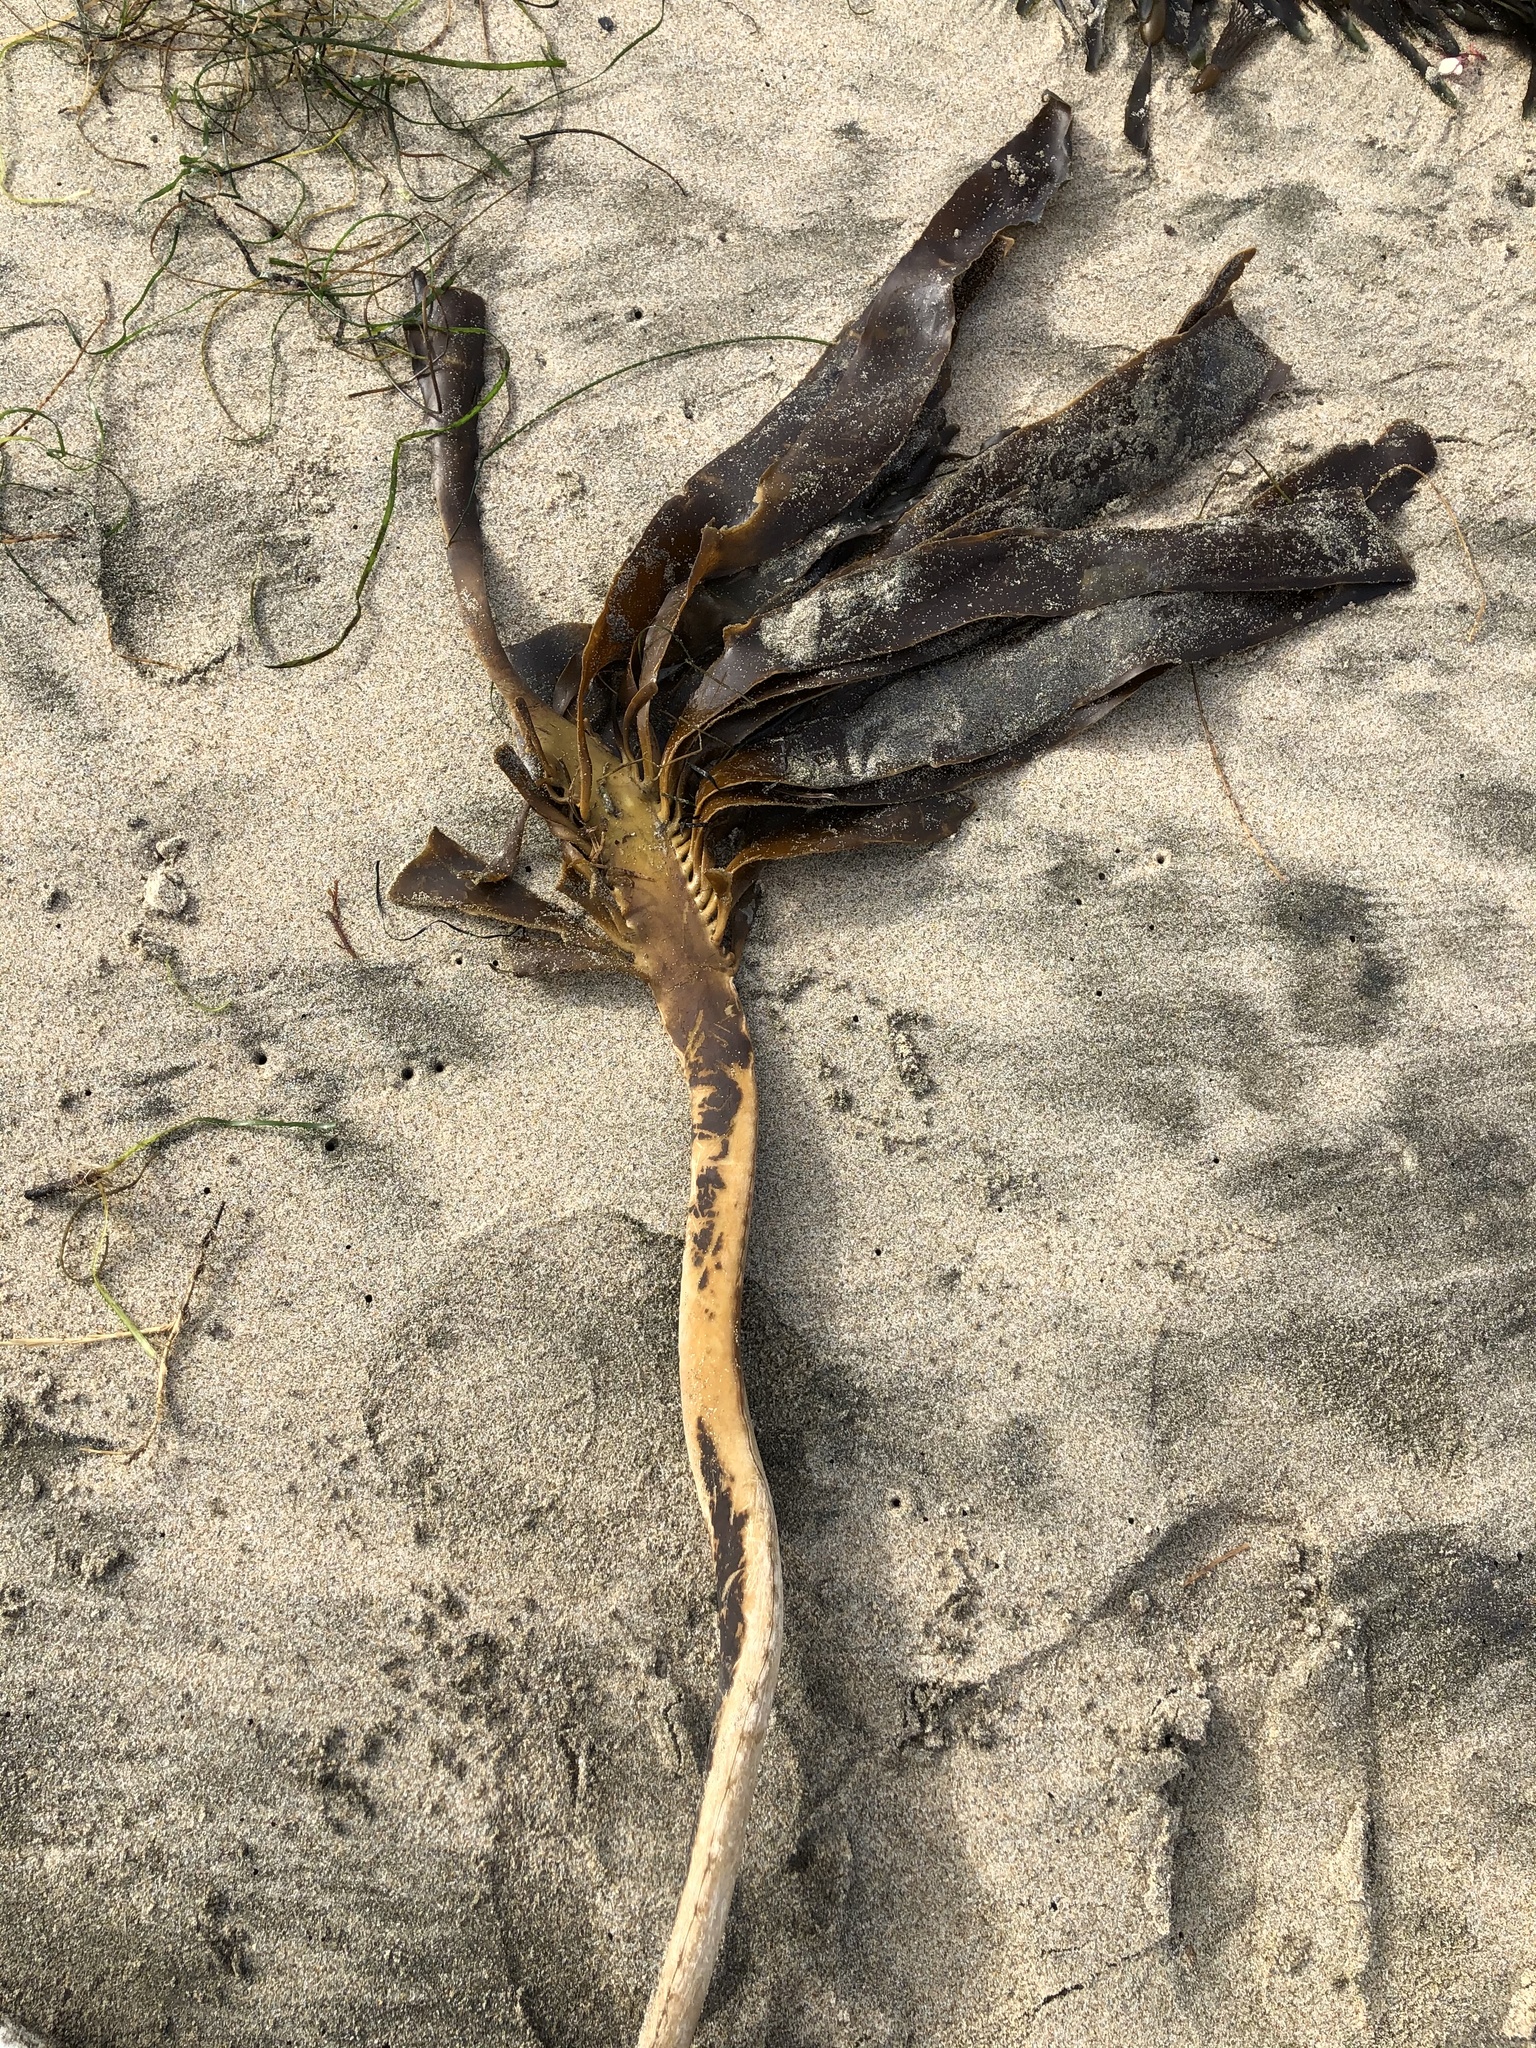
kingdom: Chromista
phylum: Ochrophyta
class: Phaeophyceae
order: Laminariales
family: Alariaceae
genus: Pterygophora
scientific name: Pterygophora californica
